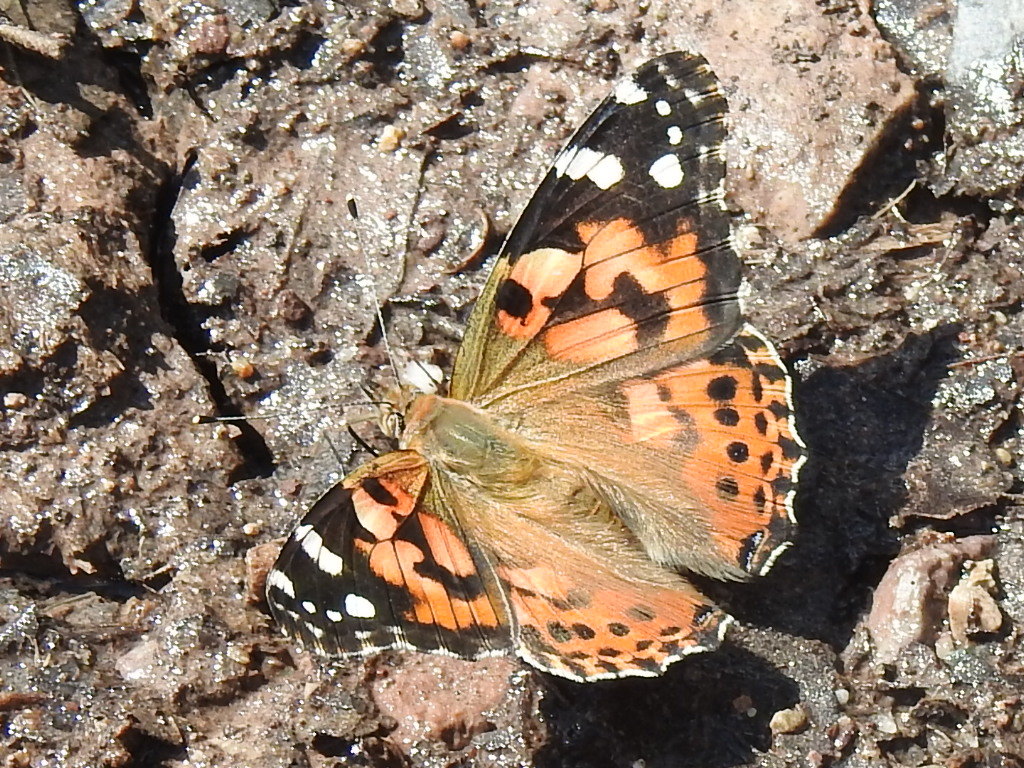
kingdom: Animalia
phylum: Arthropoda
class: Insecta
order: Lepidoptera
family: Nymphalidae
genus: Vanessa
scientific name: Vanessa cardui
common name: Painted lady
